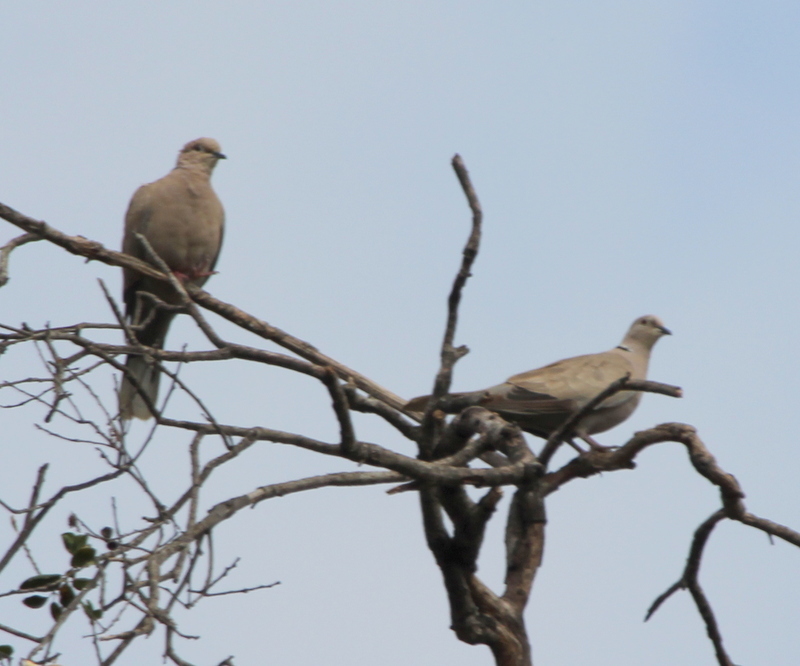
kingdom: Animalia
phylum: Chordata
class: Aves
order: Columbiformes
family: Columbidae
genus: Streptopelia
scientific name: Streptopelia decaocto
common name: Eurasian collared dove
